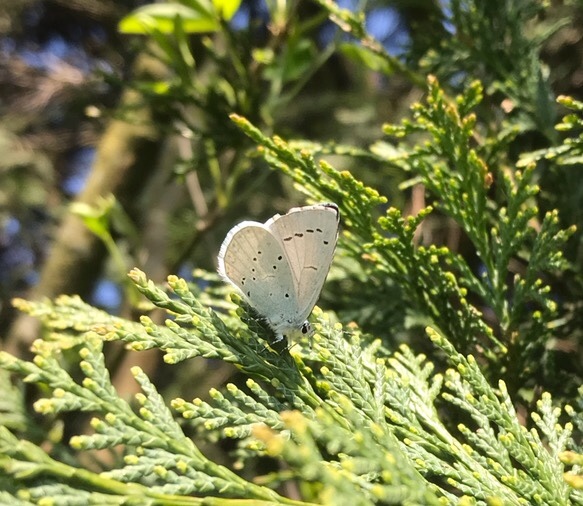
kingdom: Animalia
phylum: Arthropoda
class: Insecta
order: Lepidoptera
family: Lycaenidae
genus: Celastrina
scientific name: Celastrina argiolus
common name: Holly blue
